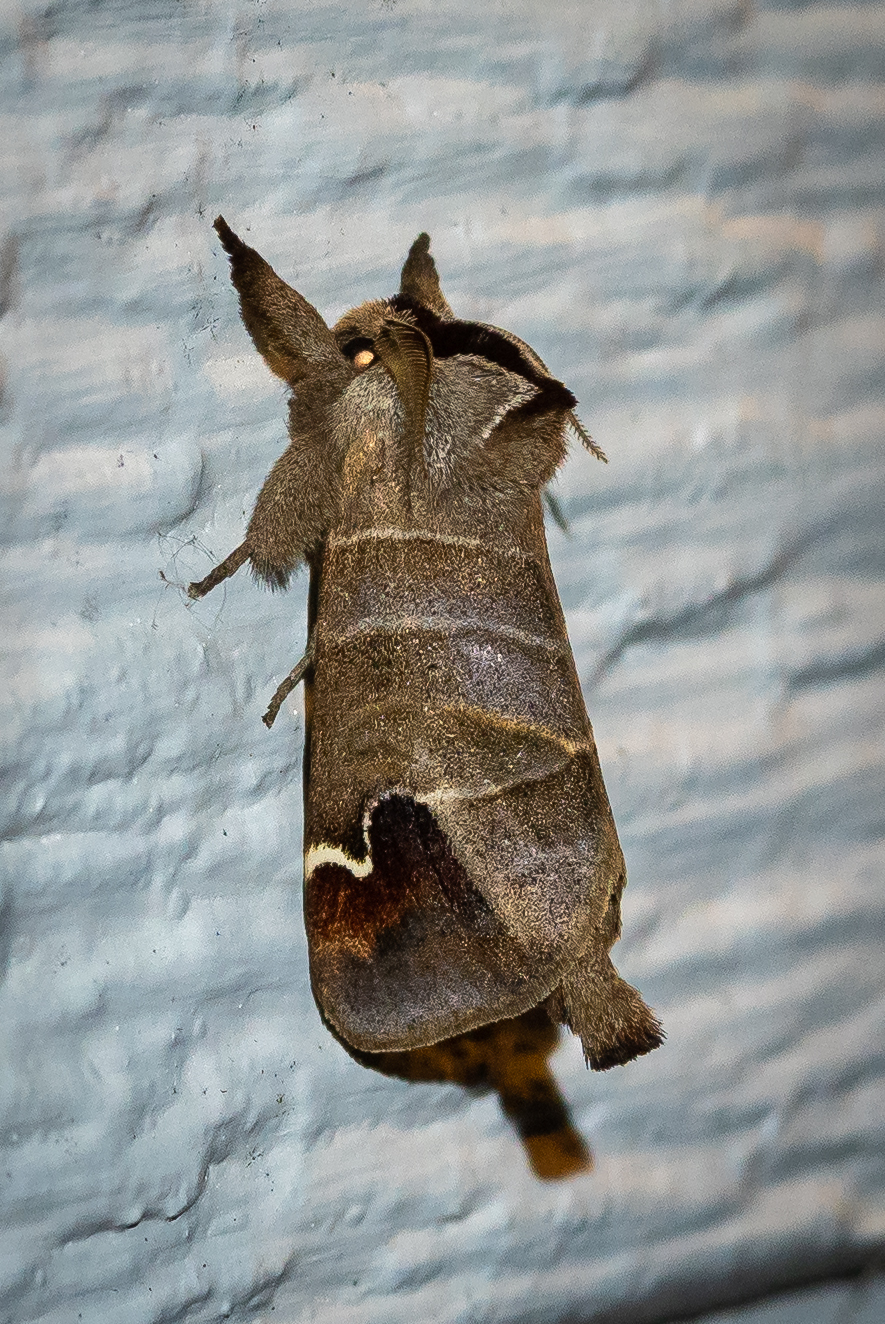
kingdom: Animalia
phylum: Arthropoda
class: Insecta
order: Lepidoptera
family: Notodontidae
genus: Clostera
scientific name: Clostera albosigma
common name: Sigmoid prominent
